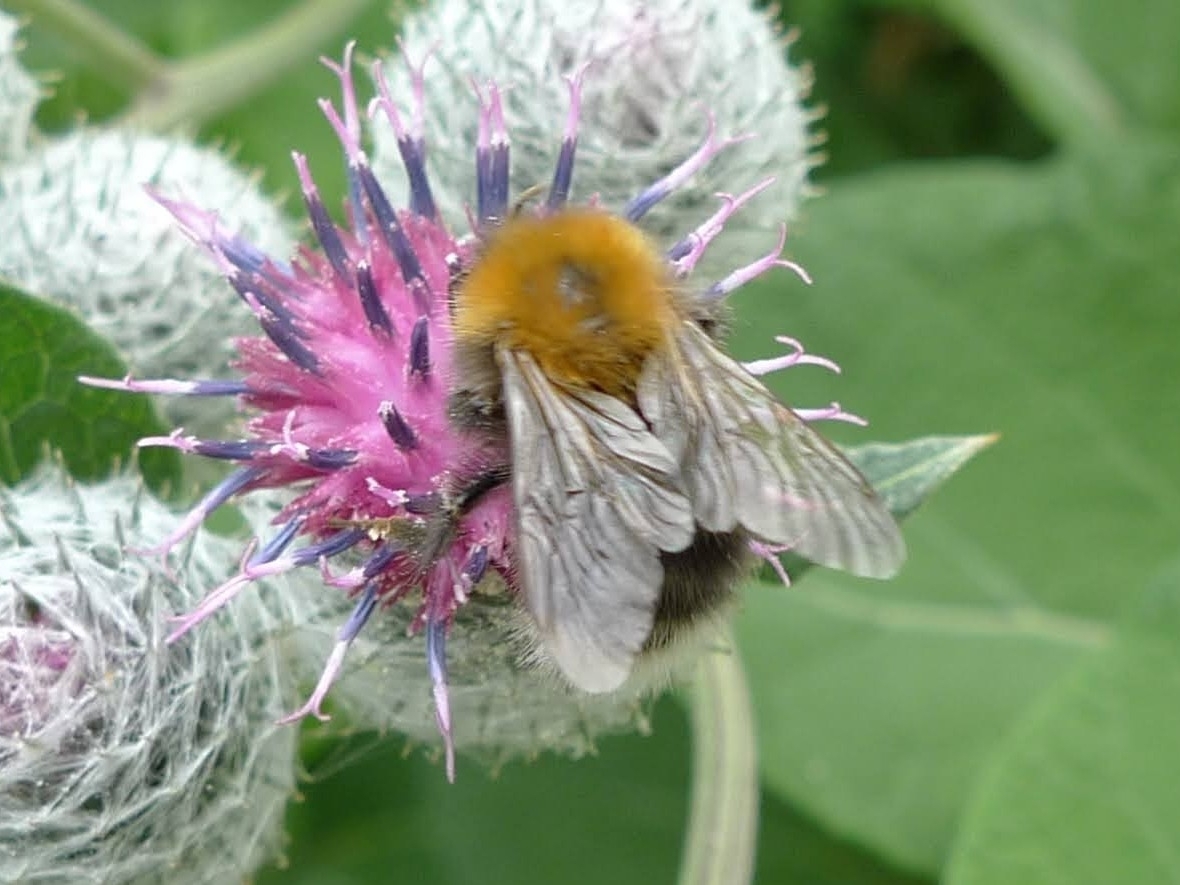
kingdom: Animalia
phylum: Arthropoda
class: Insecta
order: Hymenoptera
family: Apidae
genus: Bombus
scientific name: Bombus hypnorum
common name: New garden bumblebee
